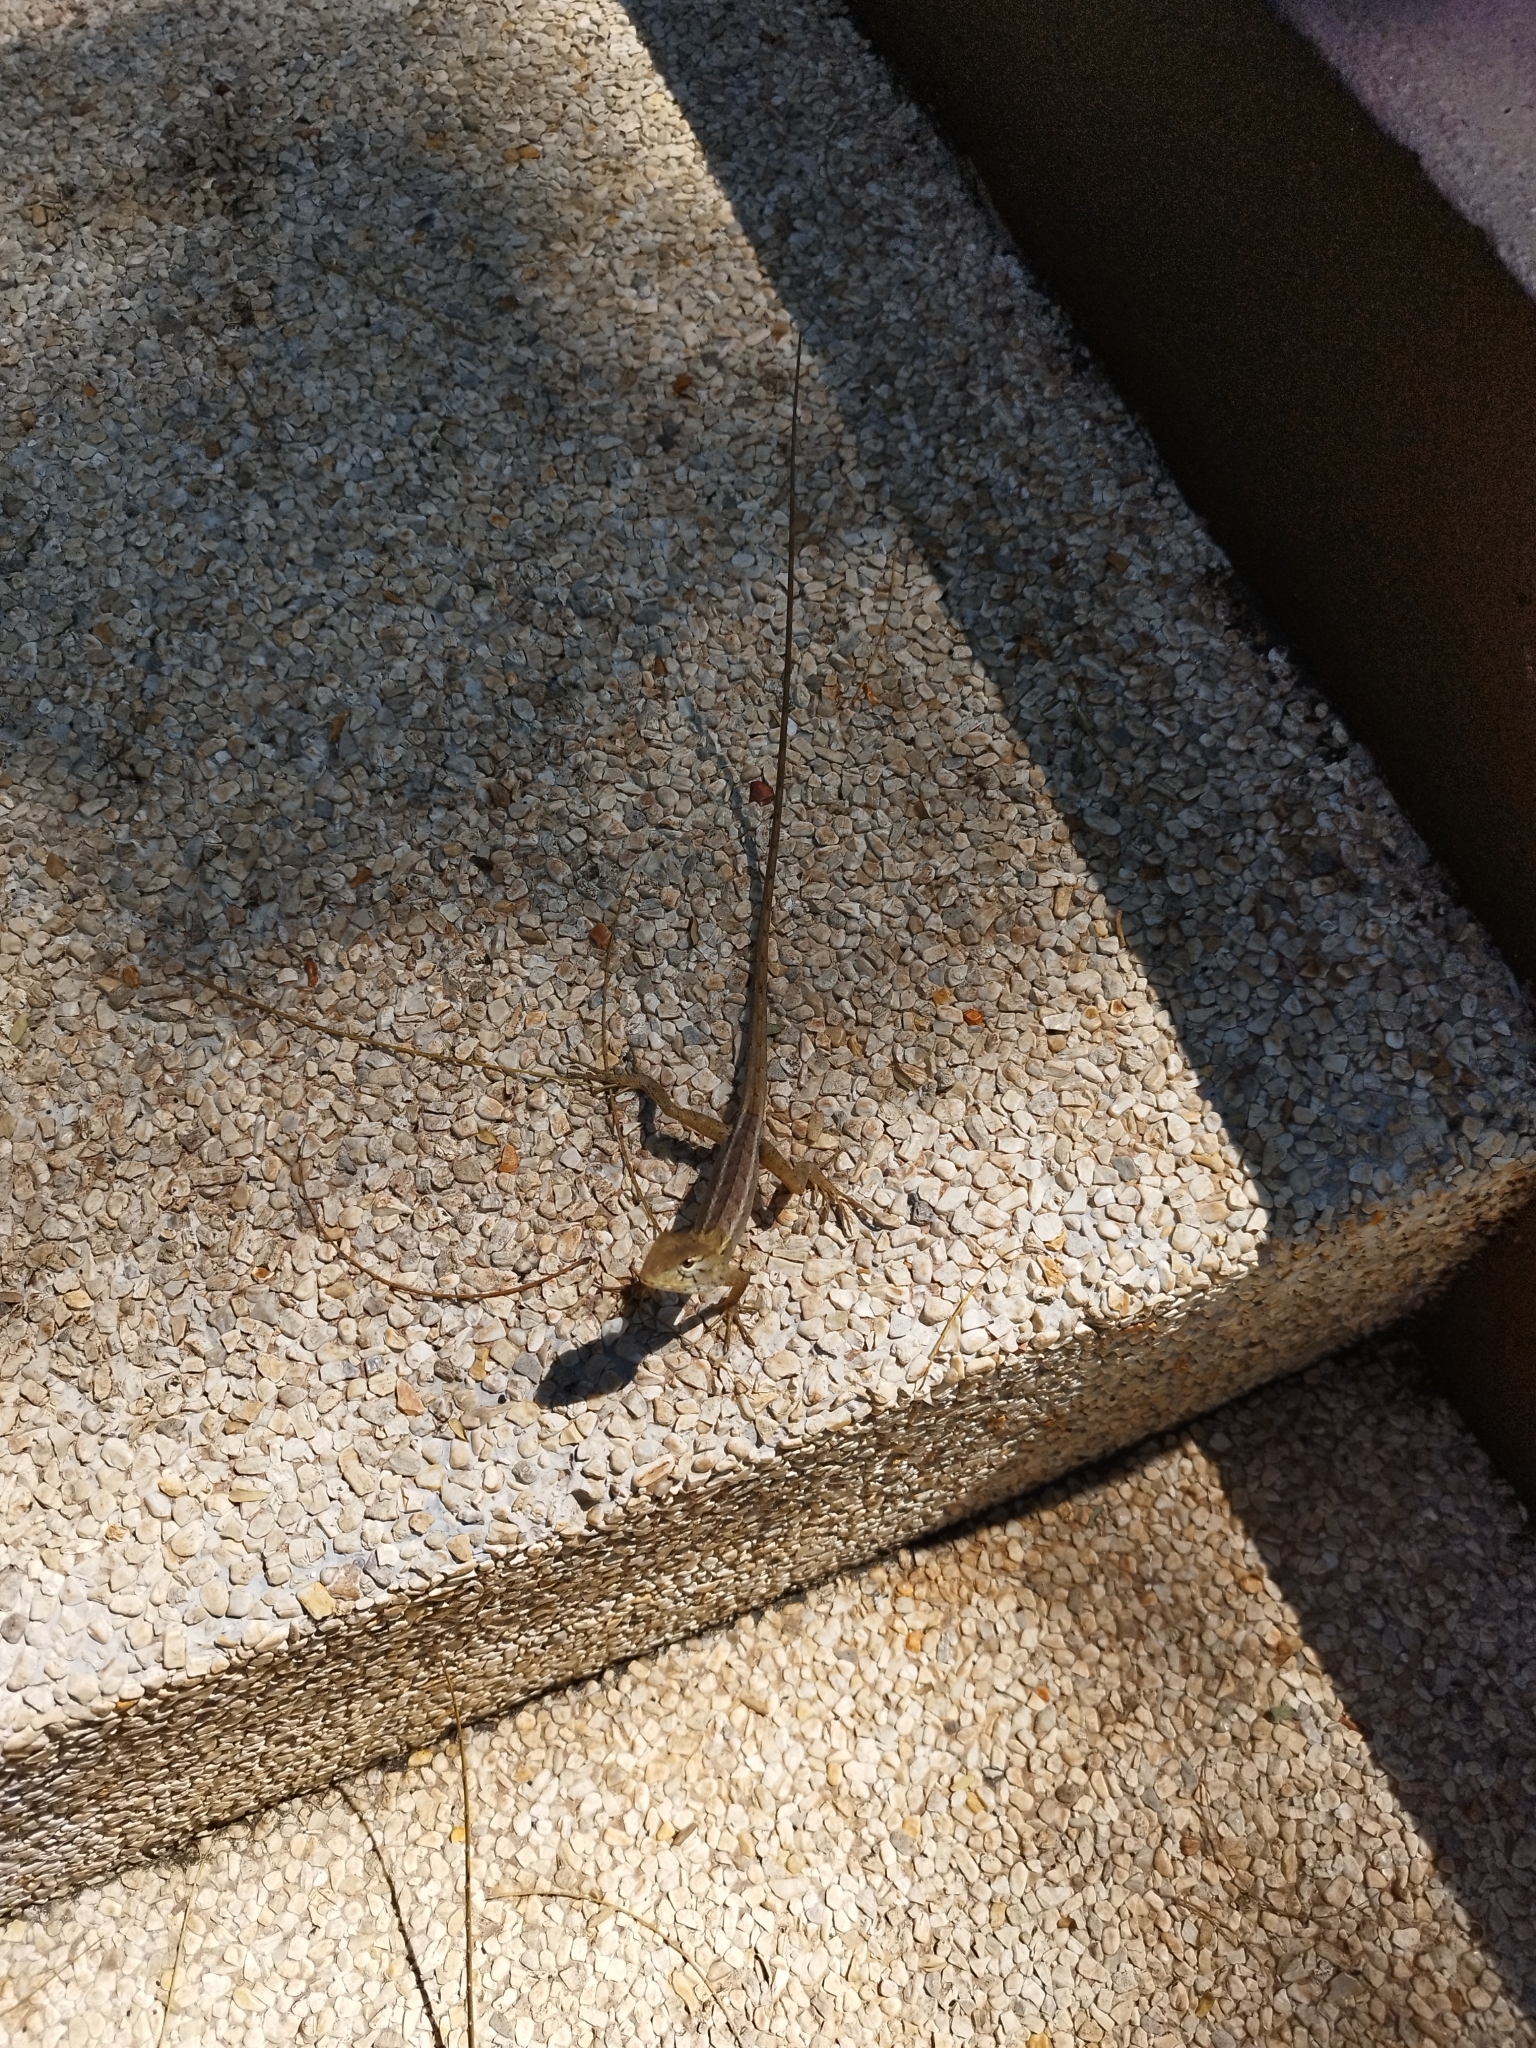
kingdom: Animalia
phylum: Chordata
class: Squamata
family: Agamidae
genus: Calotes
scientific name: Calotes versicolor
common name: Oriental garden lizard
